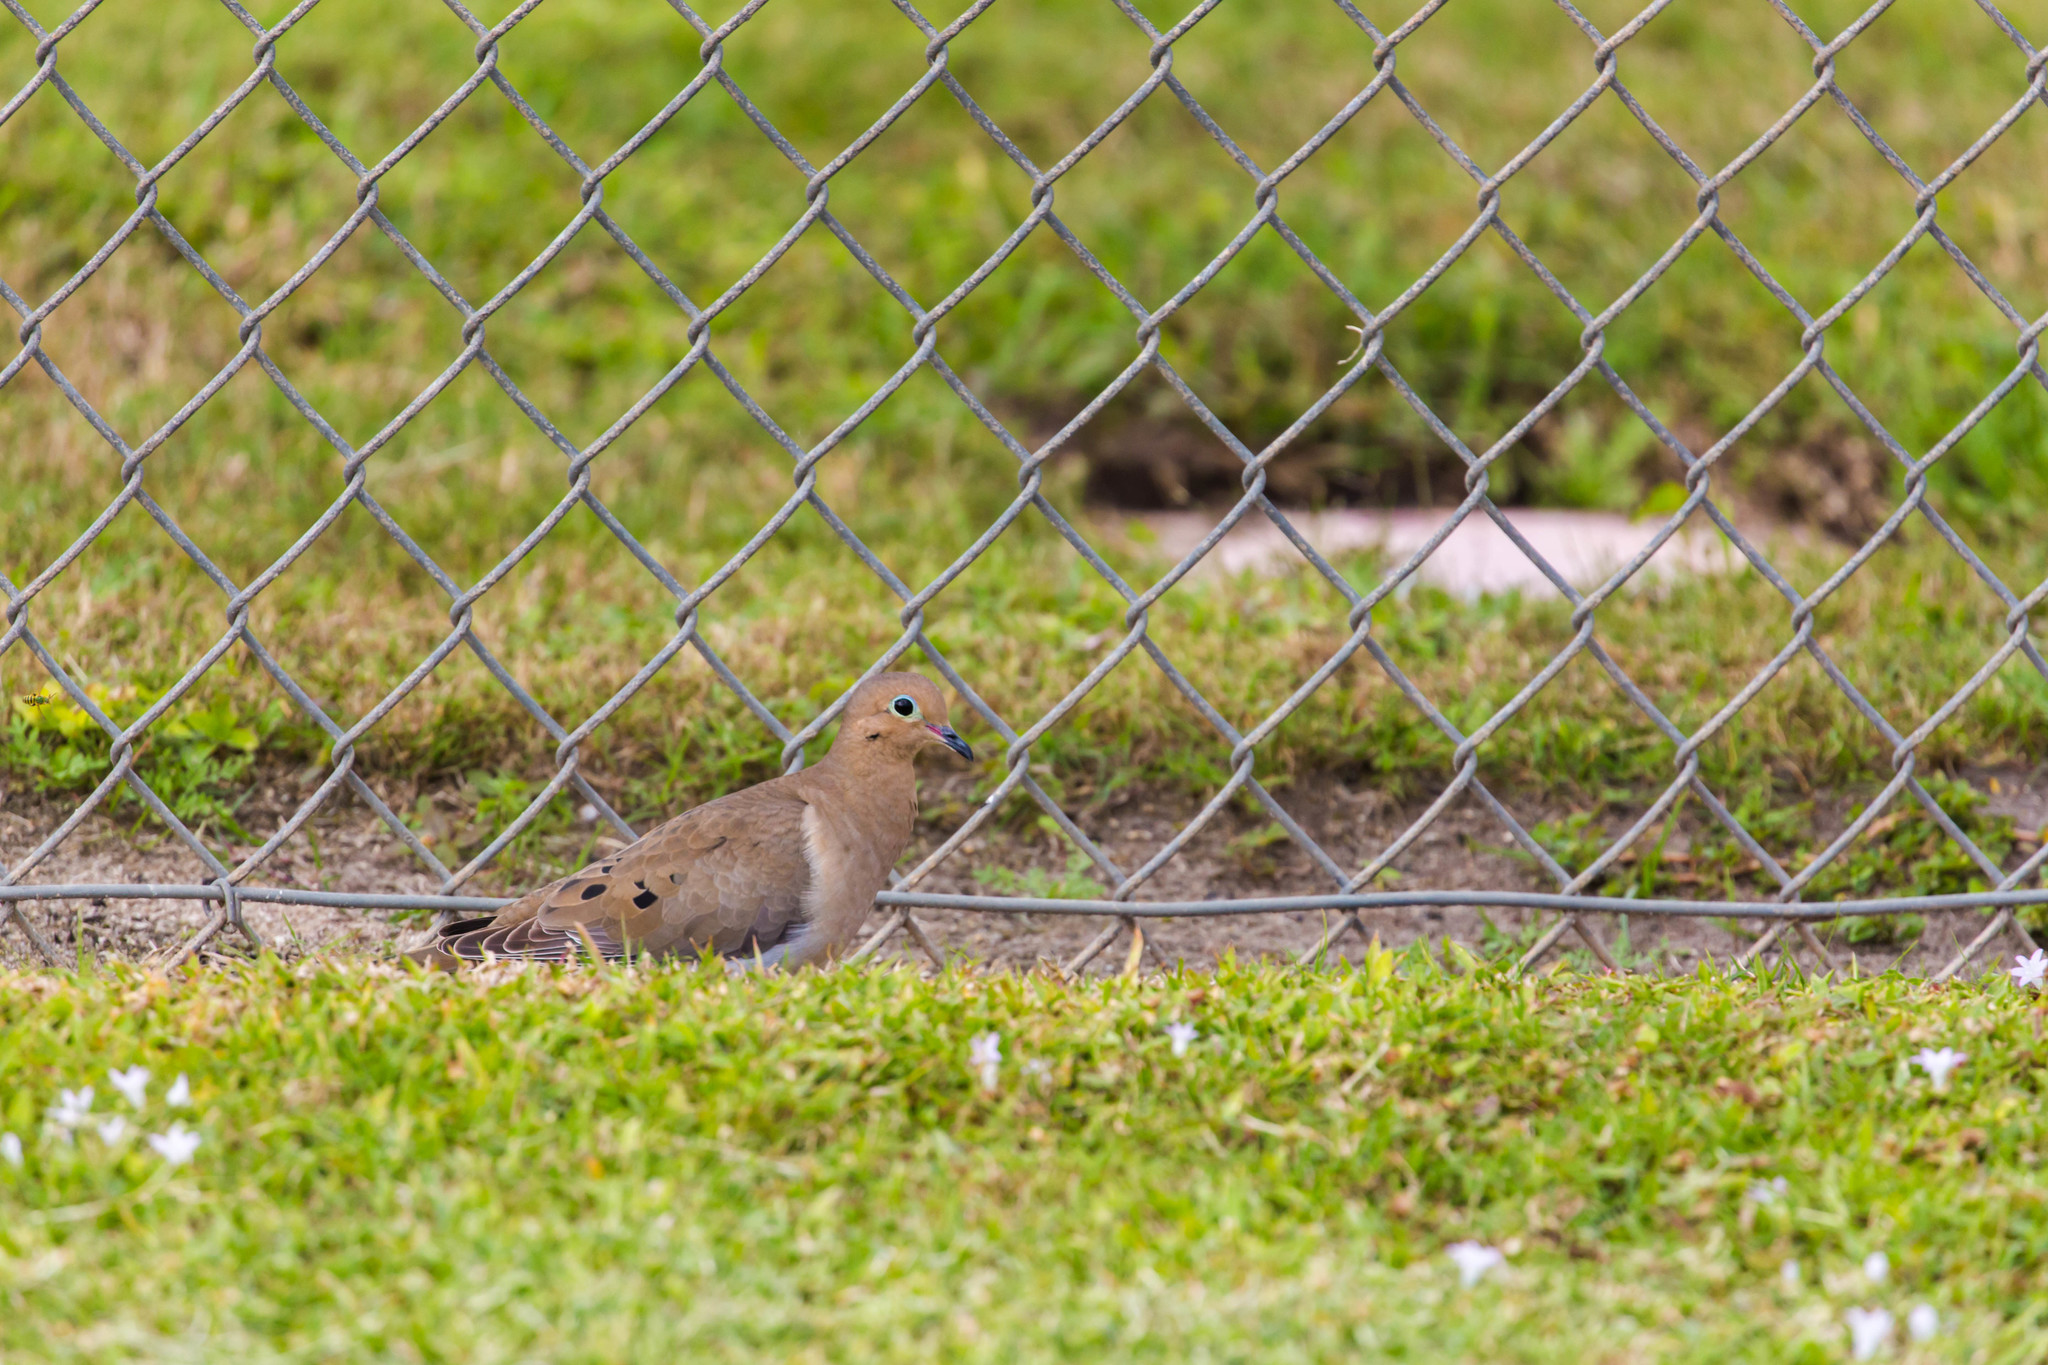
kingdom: Animalia
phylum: Chordata
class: Aves
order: Columbiformes
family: Columbidae
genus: Zenaida
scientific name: Zenaida macroura
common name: Mourning dove
